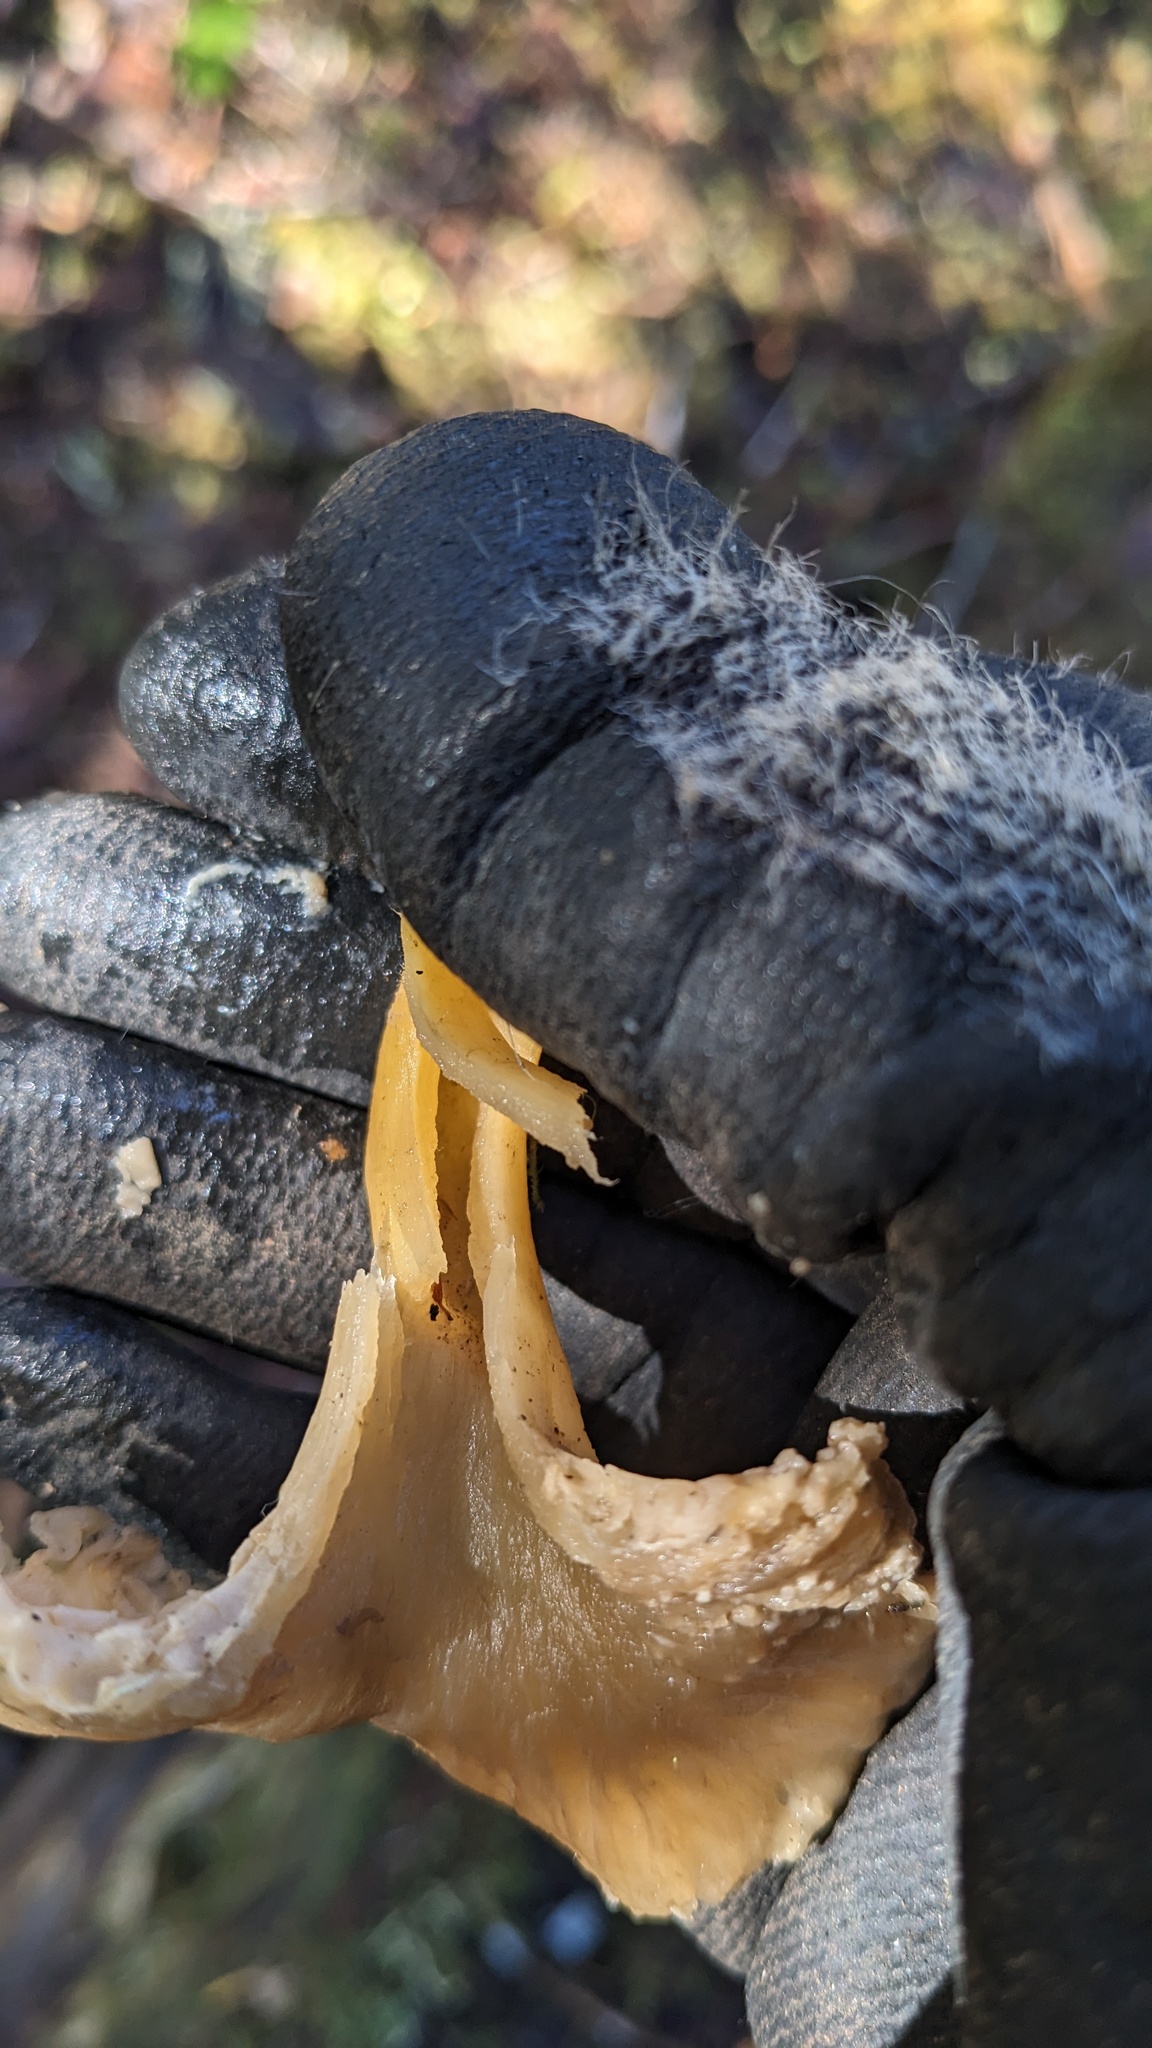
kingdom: Fungi
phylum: Basidiomycota
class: Agaricomycetes
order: Cantharellales
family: Hydnaceae
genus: Craterellus
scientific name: Craterellus tubaeformis
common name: Yellowfoot
